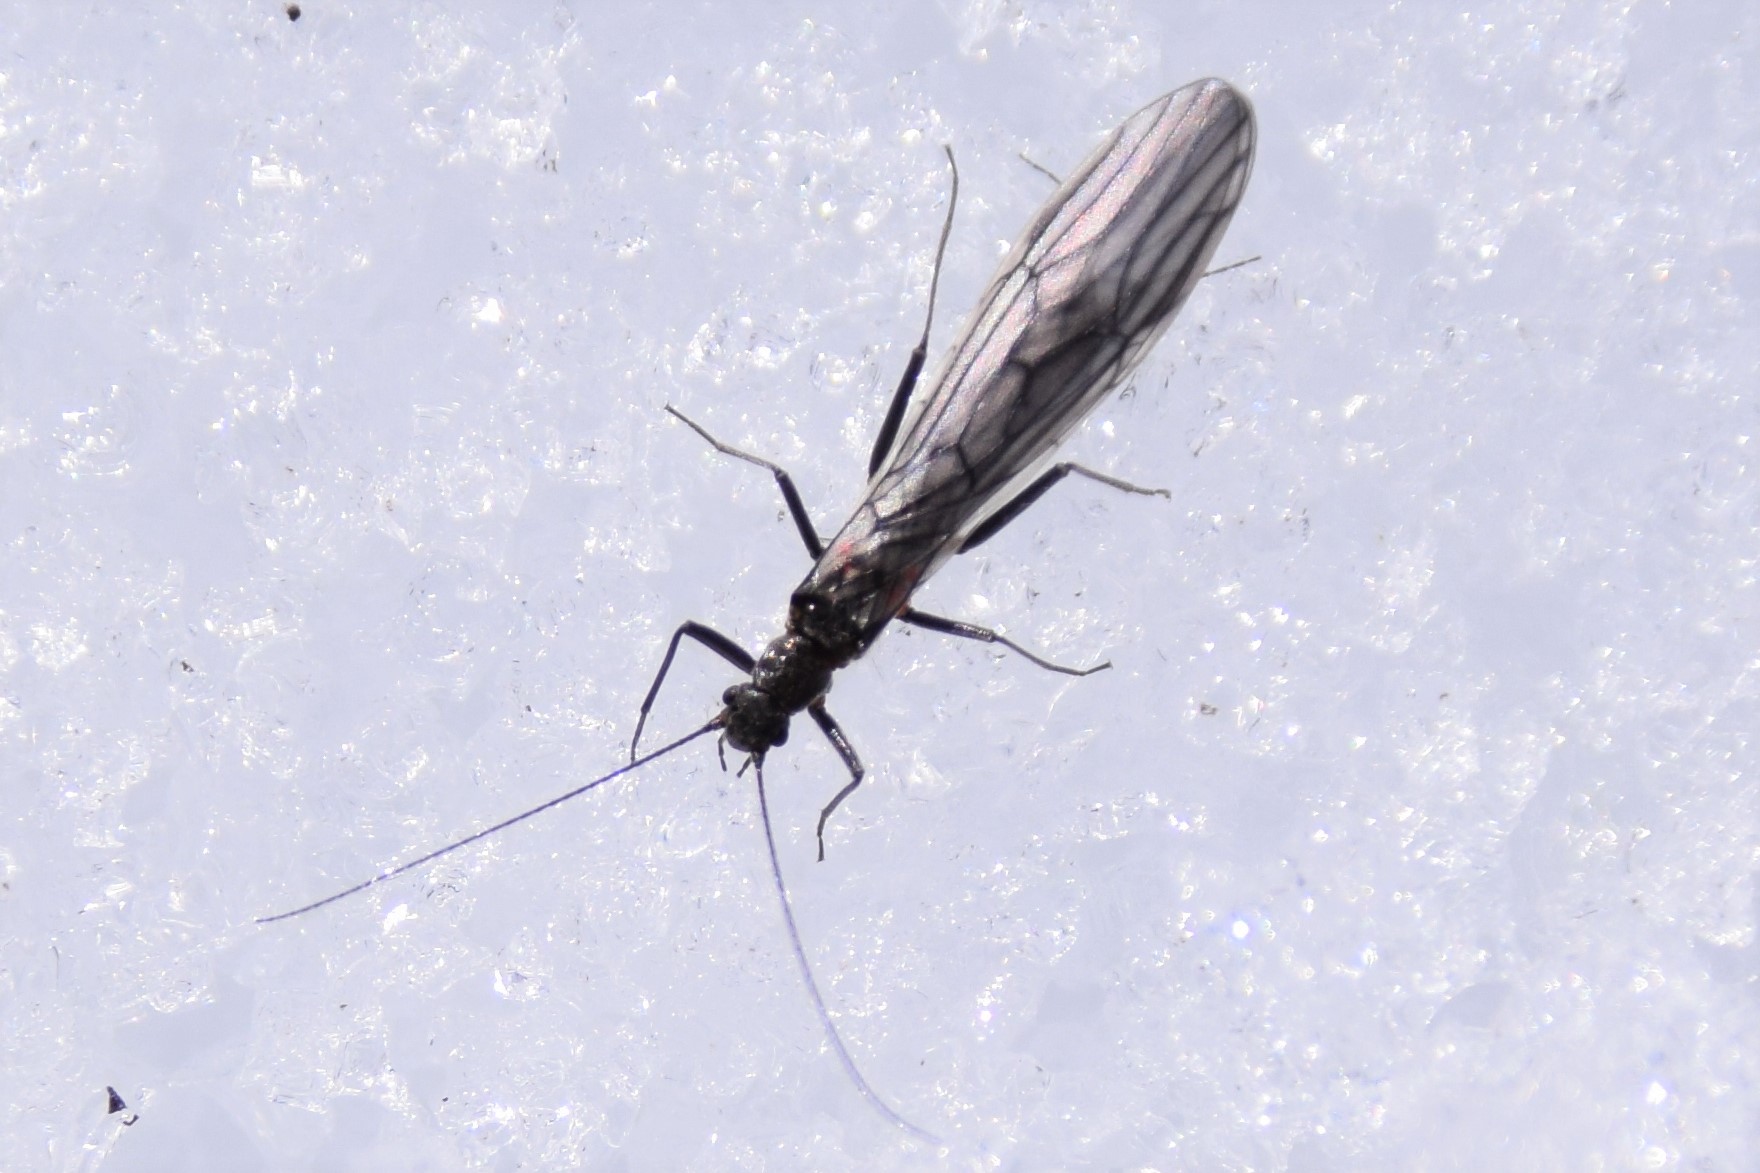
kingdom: Animalia
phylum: Arthropoda
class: Insecta
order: Plecoptera
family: Capniidae
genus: Bolshecapnia
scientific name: Bolshecapnia milami
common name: Glacier snowfly
